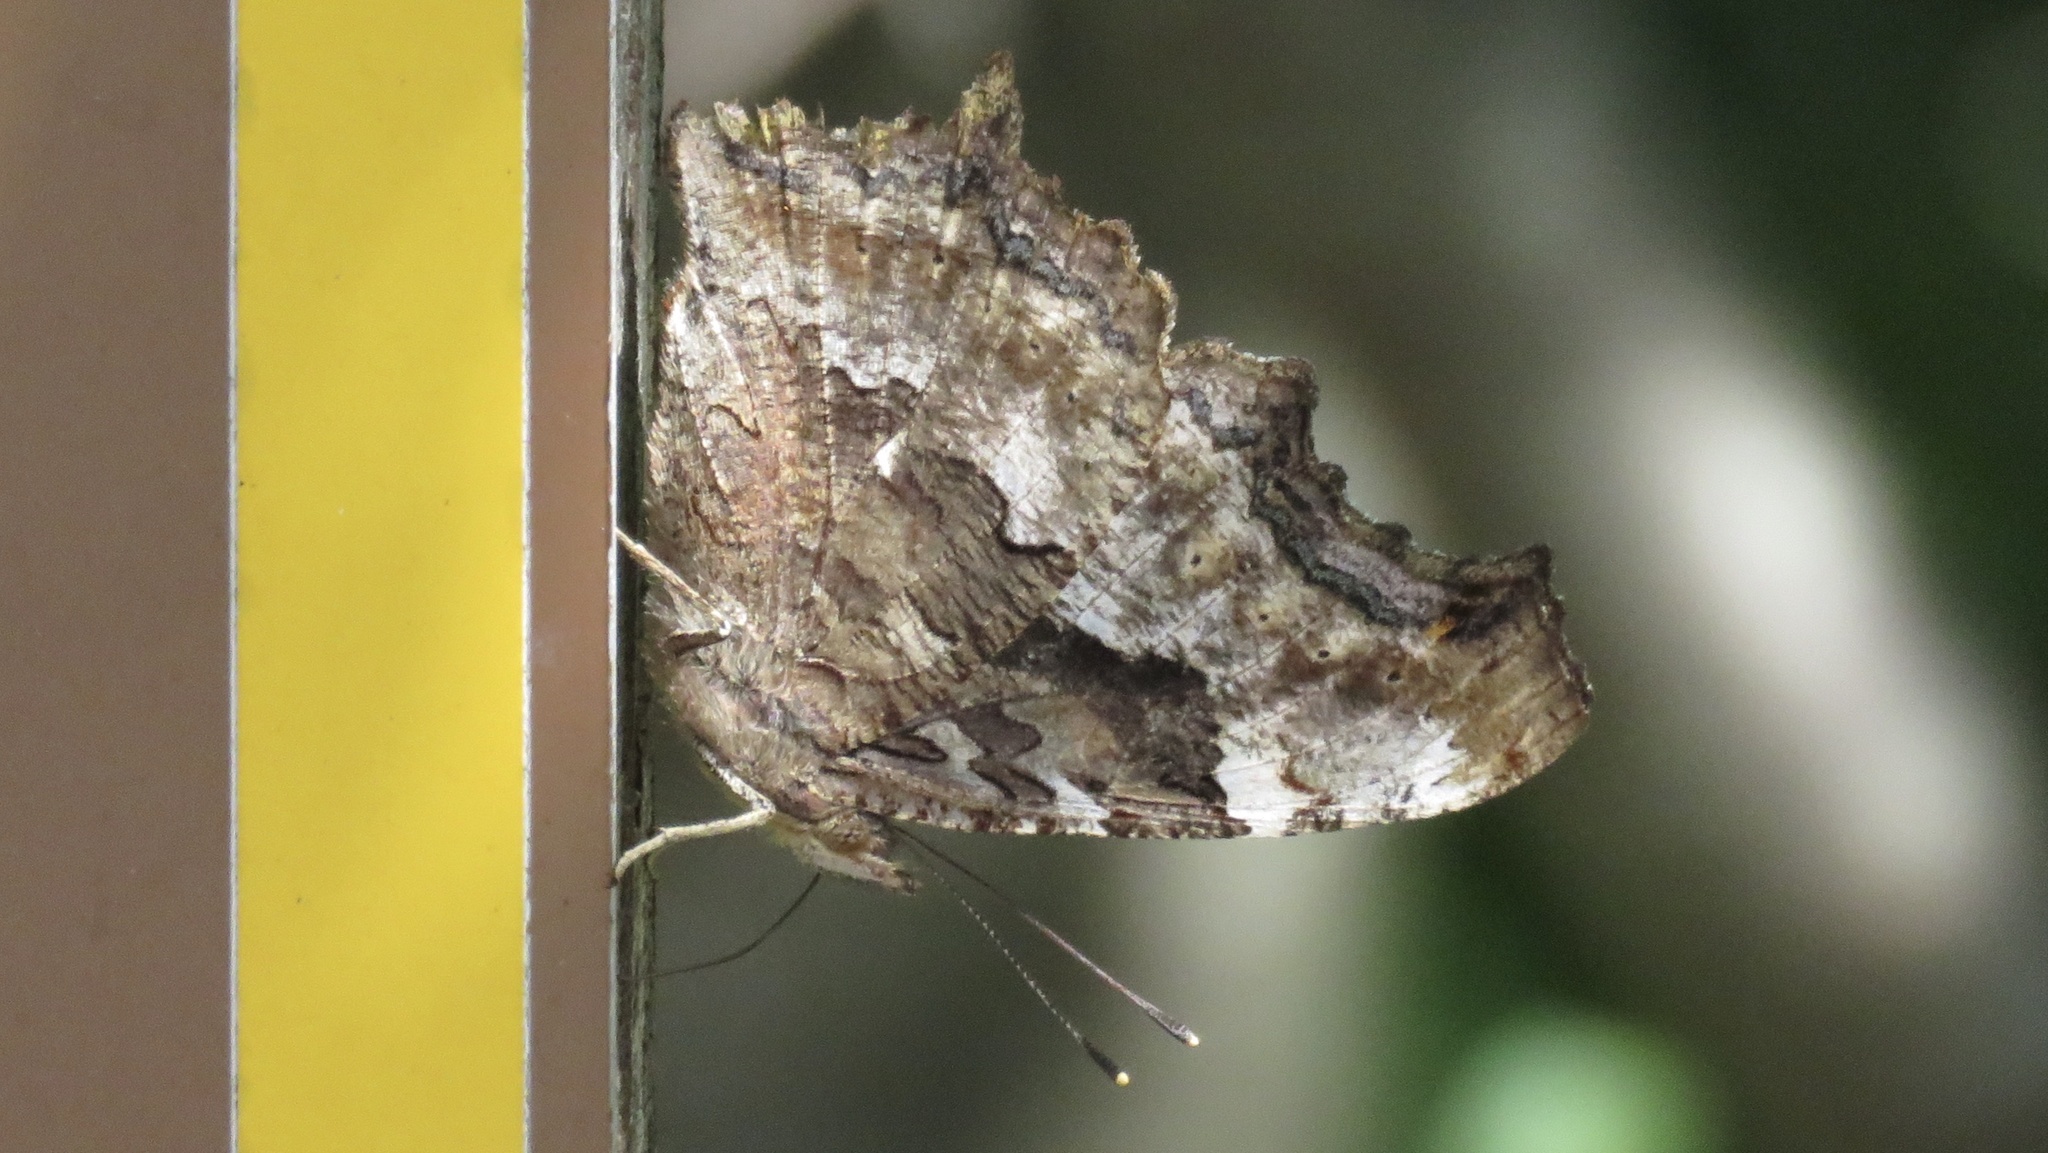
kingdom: Animalia
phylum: Arthropoda
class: Insecta
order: Lepidoptera
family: Nymphalidae
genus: Polygonia
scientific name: Polygonia vaualbum
